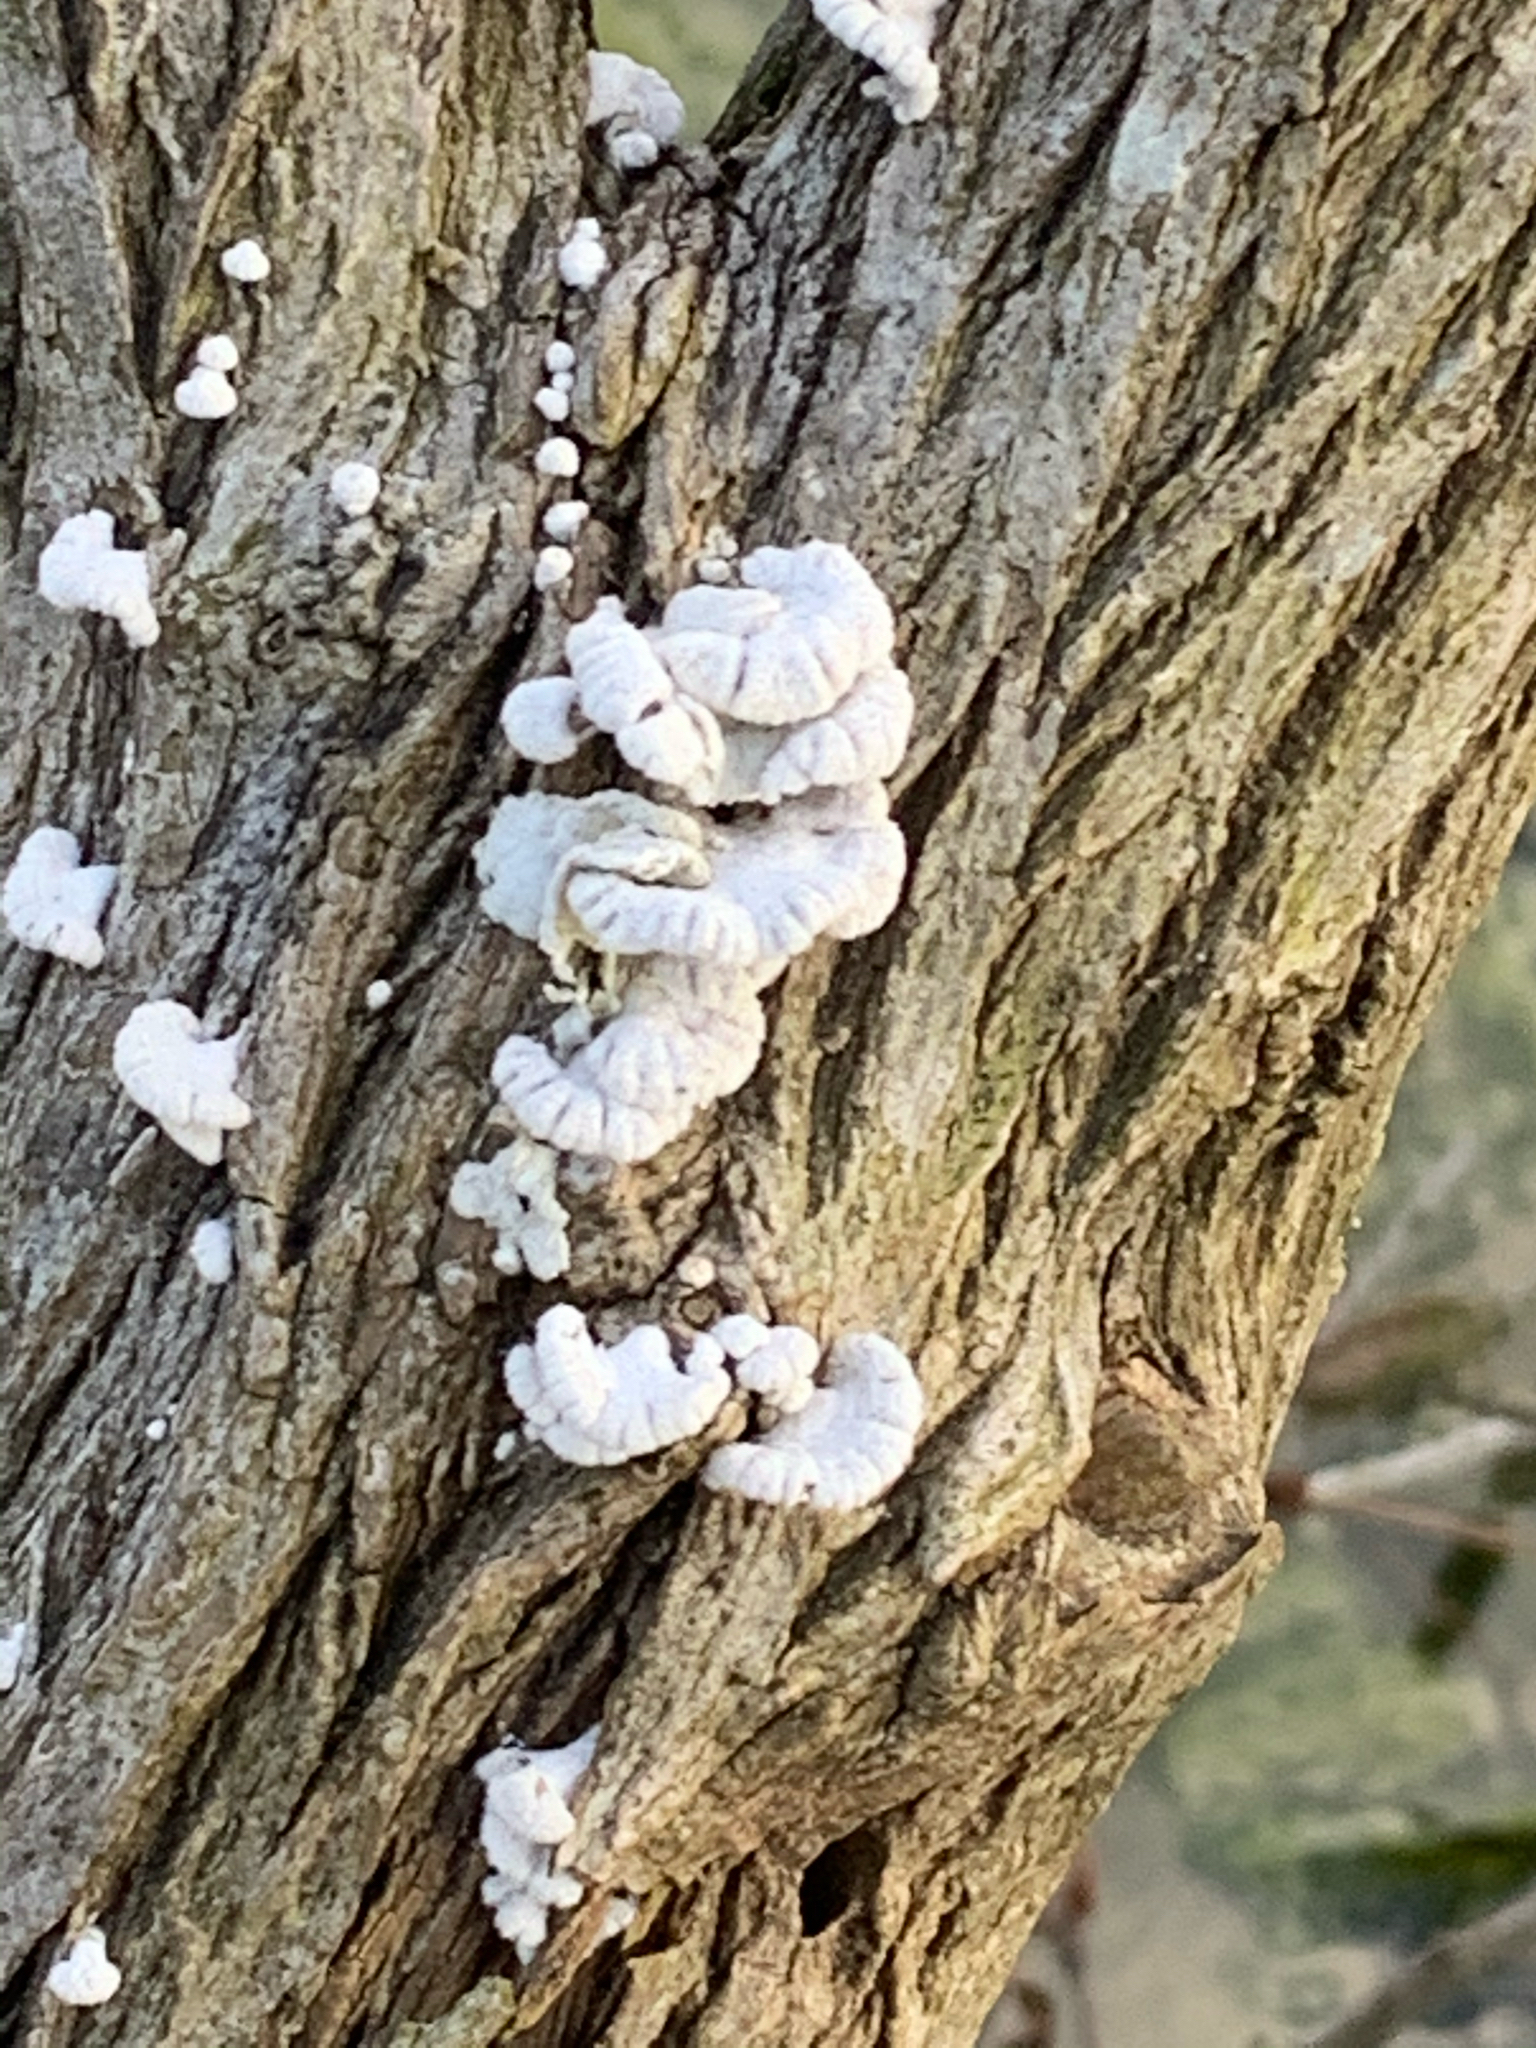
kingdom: Fungi
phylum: Basidiomycota
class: Agaricomycetes
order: Agaricales
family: Schizophyllaceae
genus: Schizophyllum
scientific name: Schizophyllum commune
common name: Common porecrust
